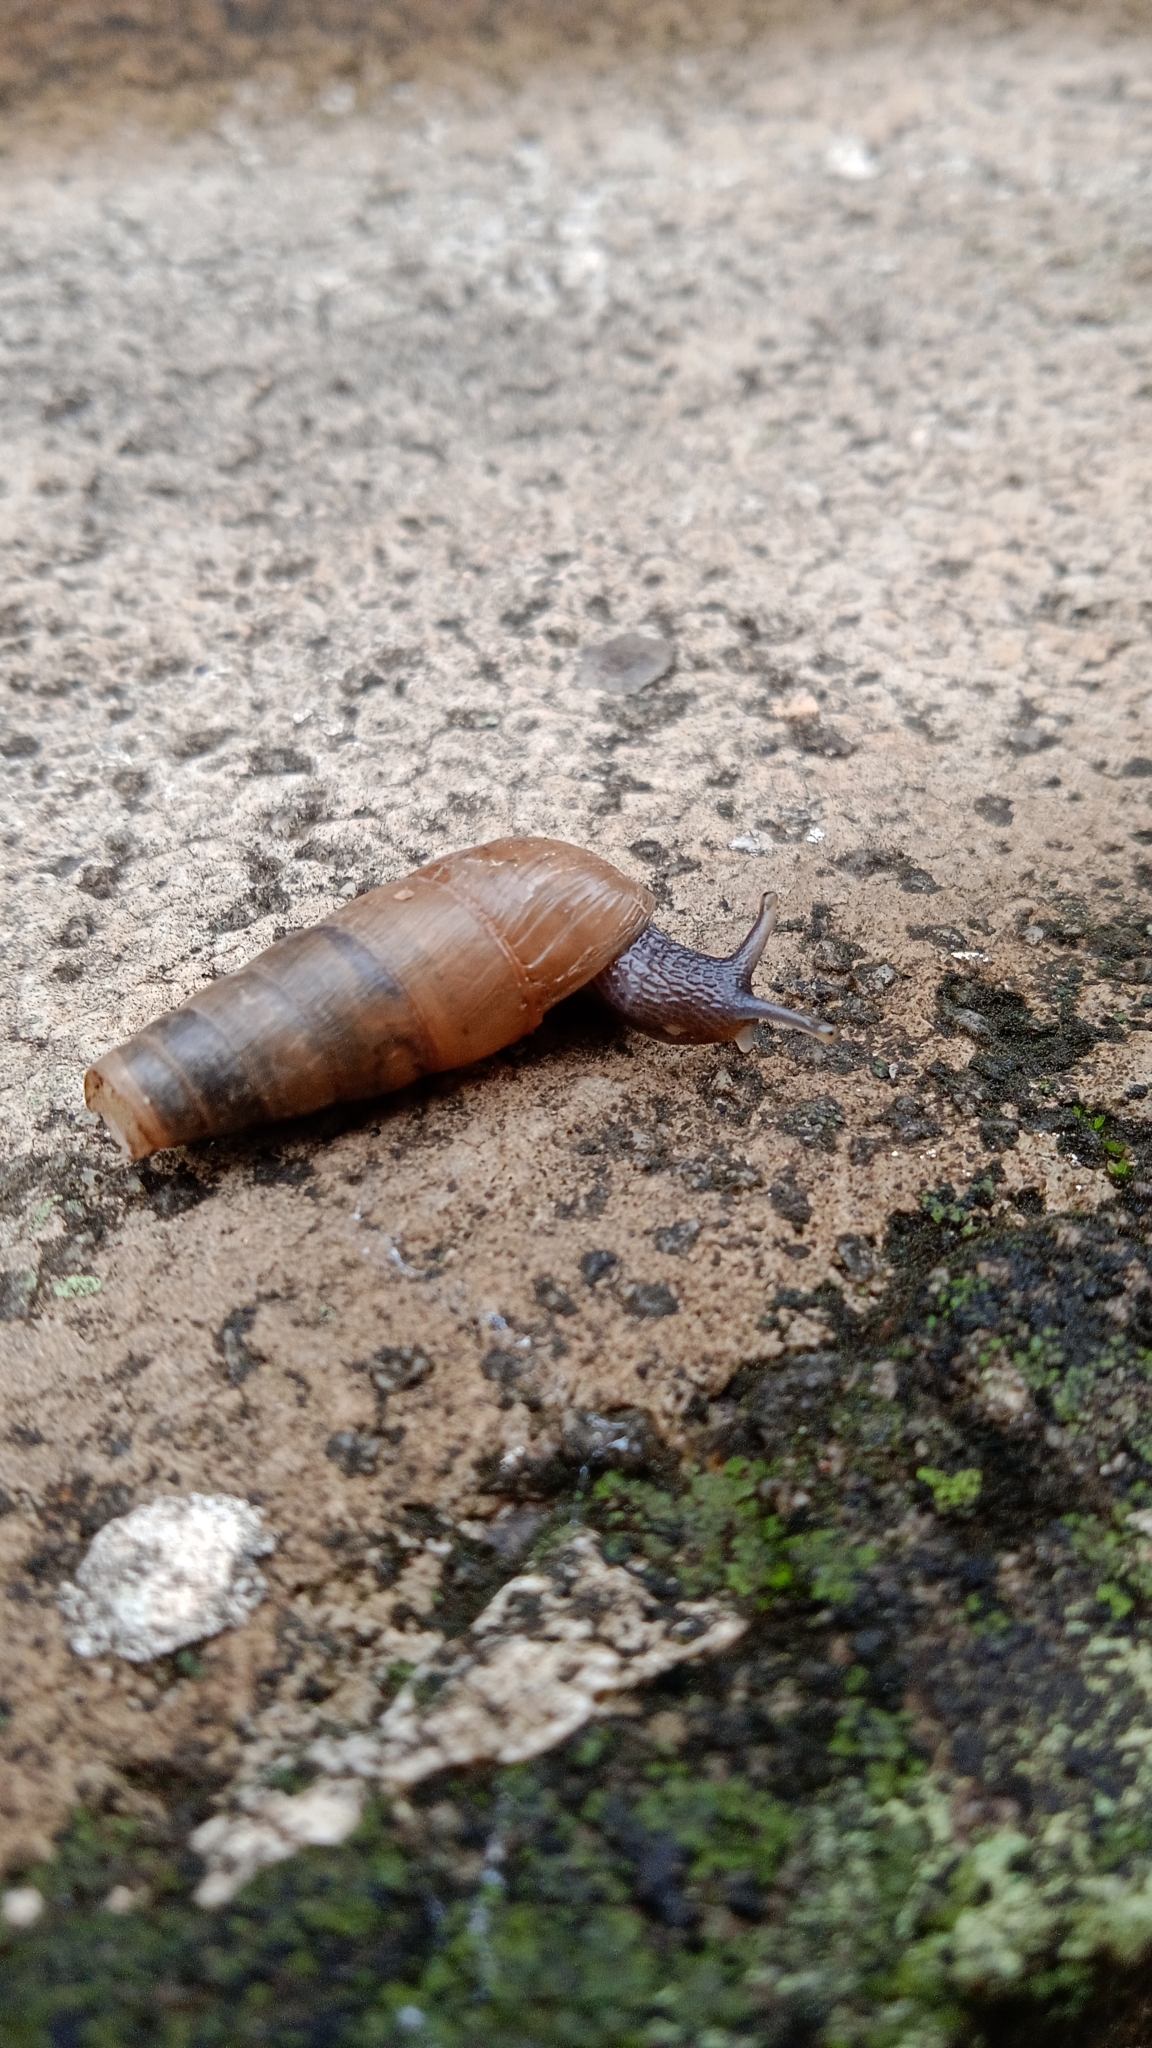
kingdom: Animalia
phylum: Mollusca
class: Gastropoda
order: Stylommatophora
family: Achatinidae
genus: Rumina
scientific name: Rumina decollata
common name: Decollate snail
